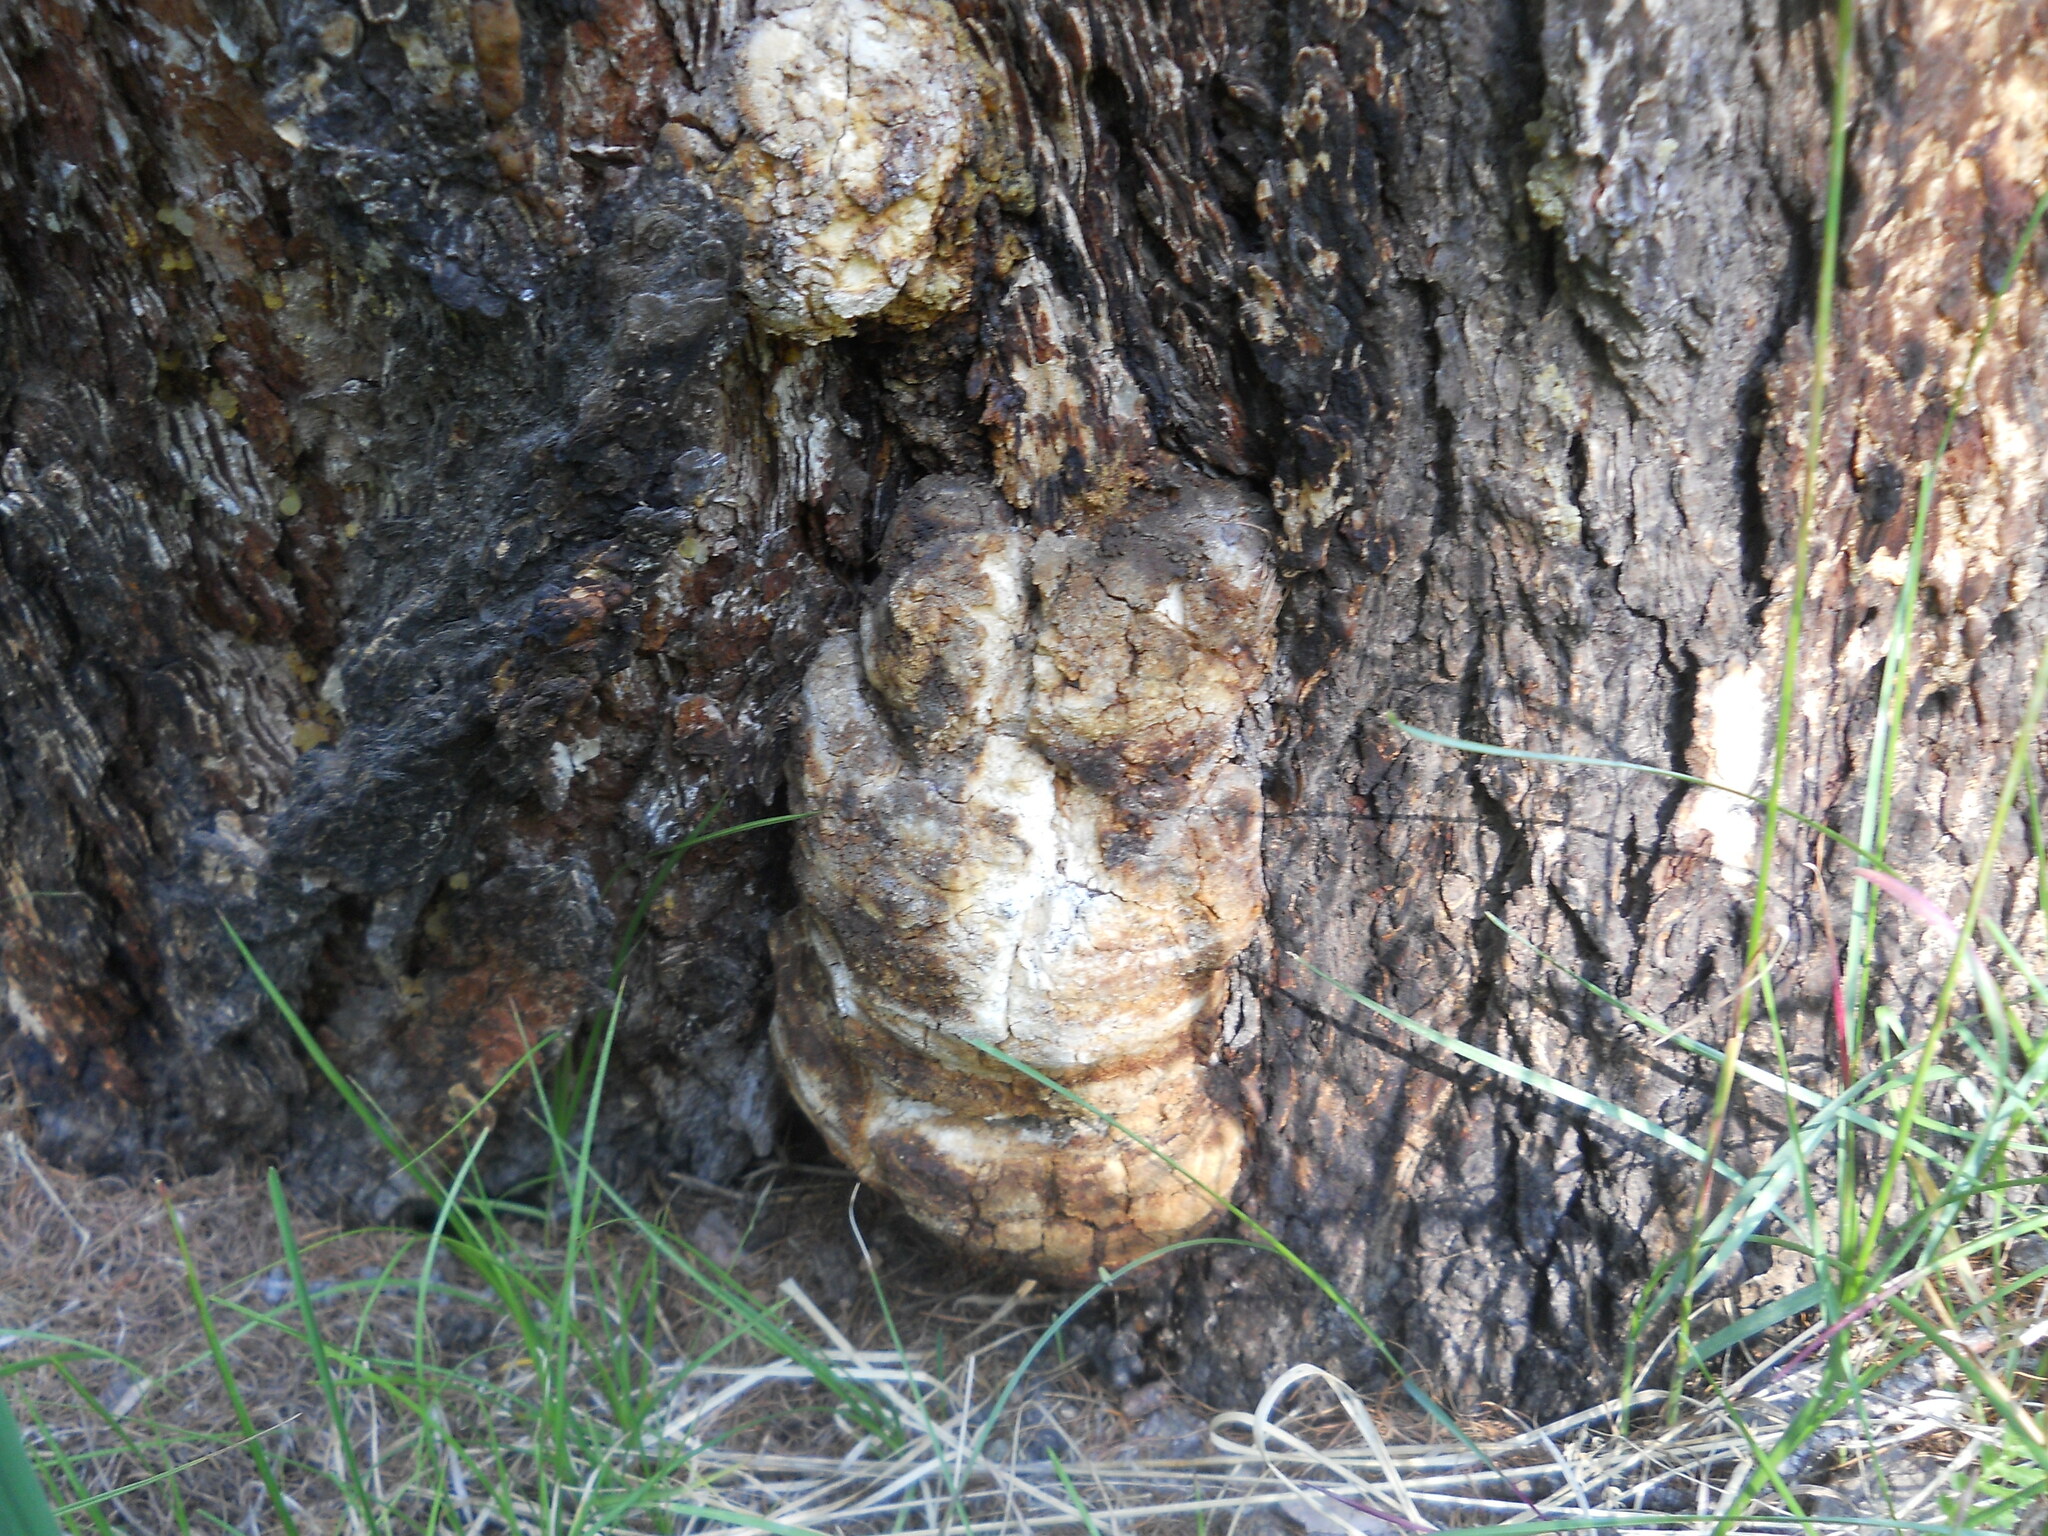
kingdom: Fungi
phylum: Basidiomycota
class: Agaricomycetes
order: Polyporales
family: Fomitopsidaceae
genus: Fomitopsis
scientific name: Fomitopsis officinalis
